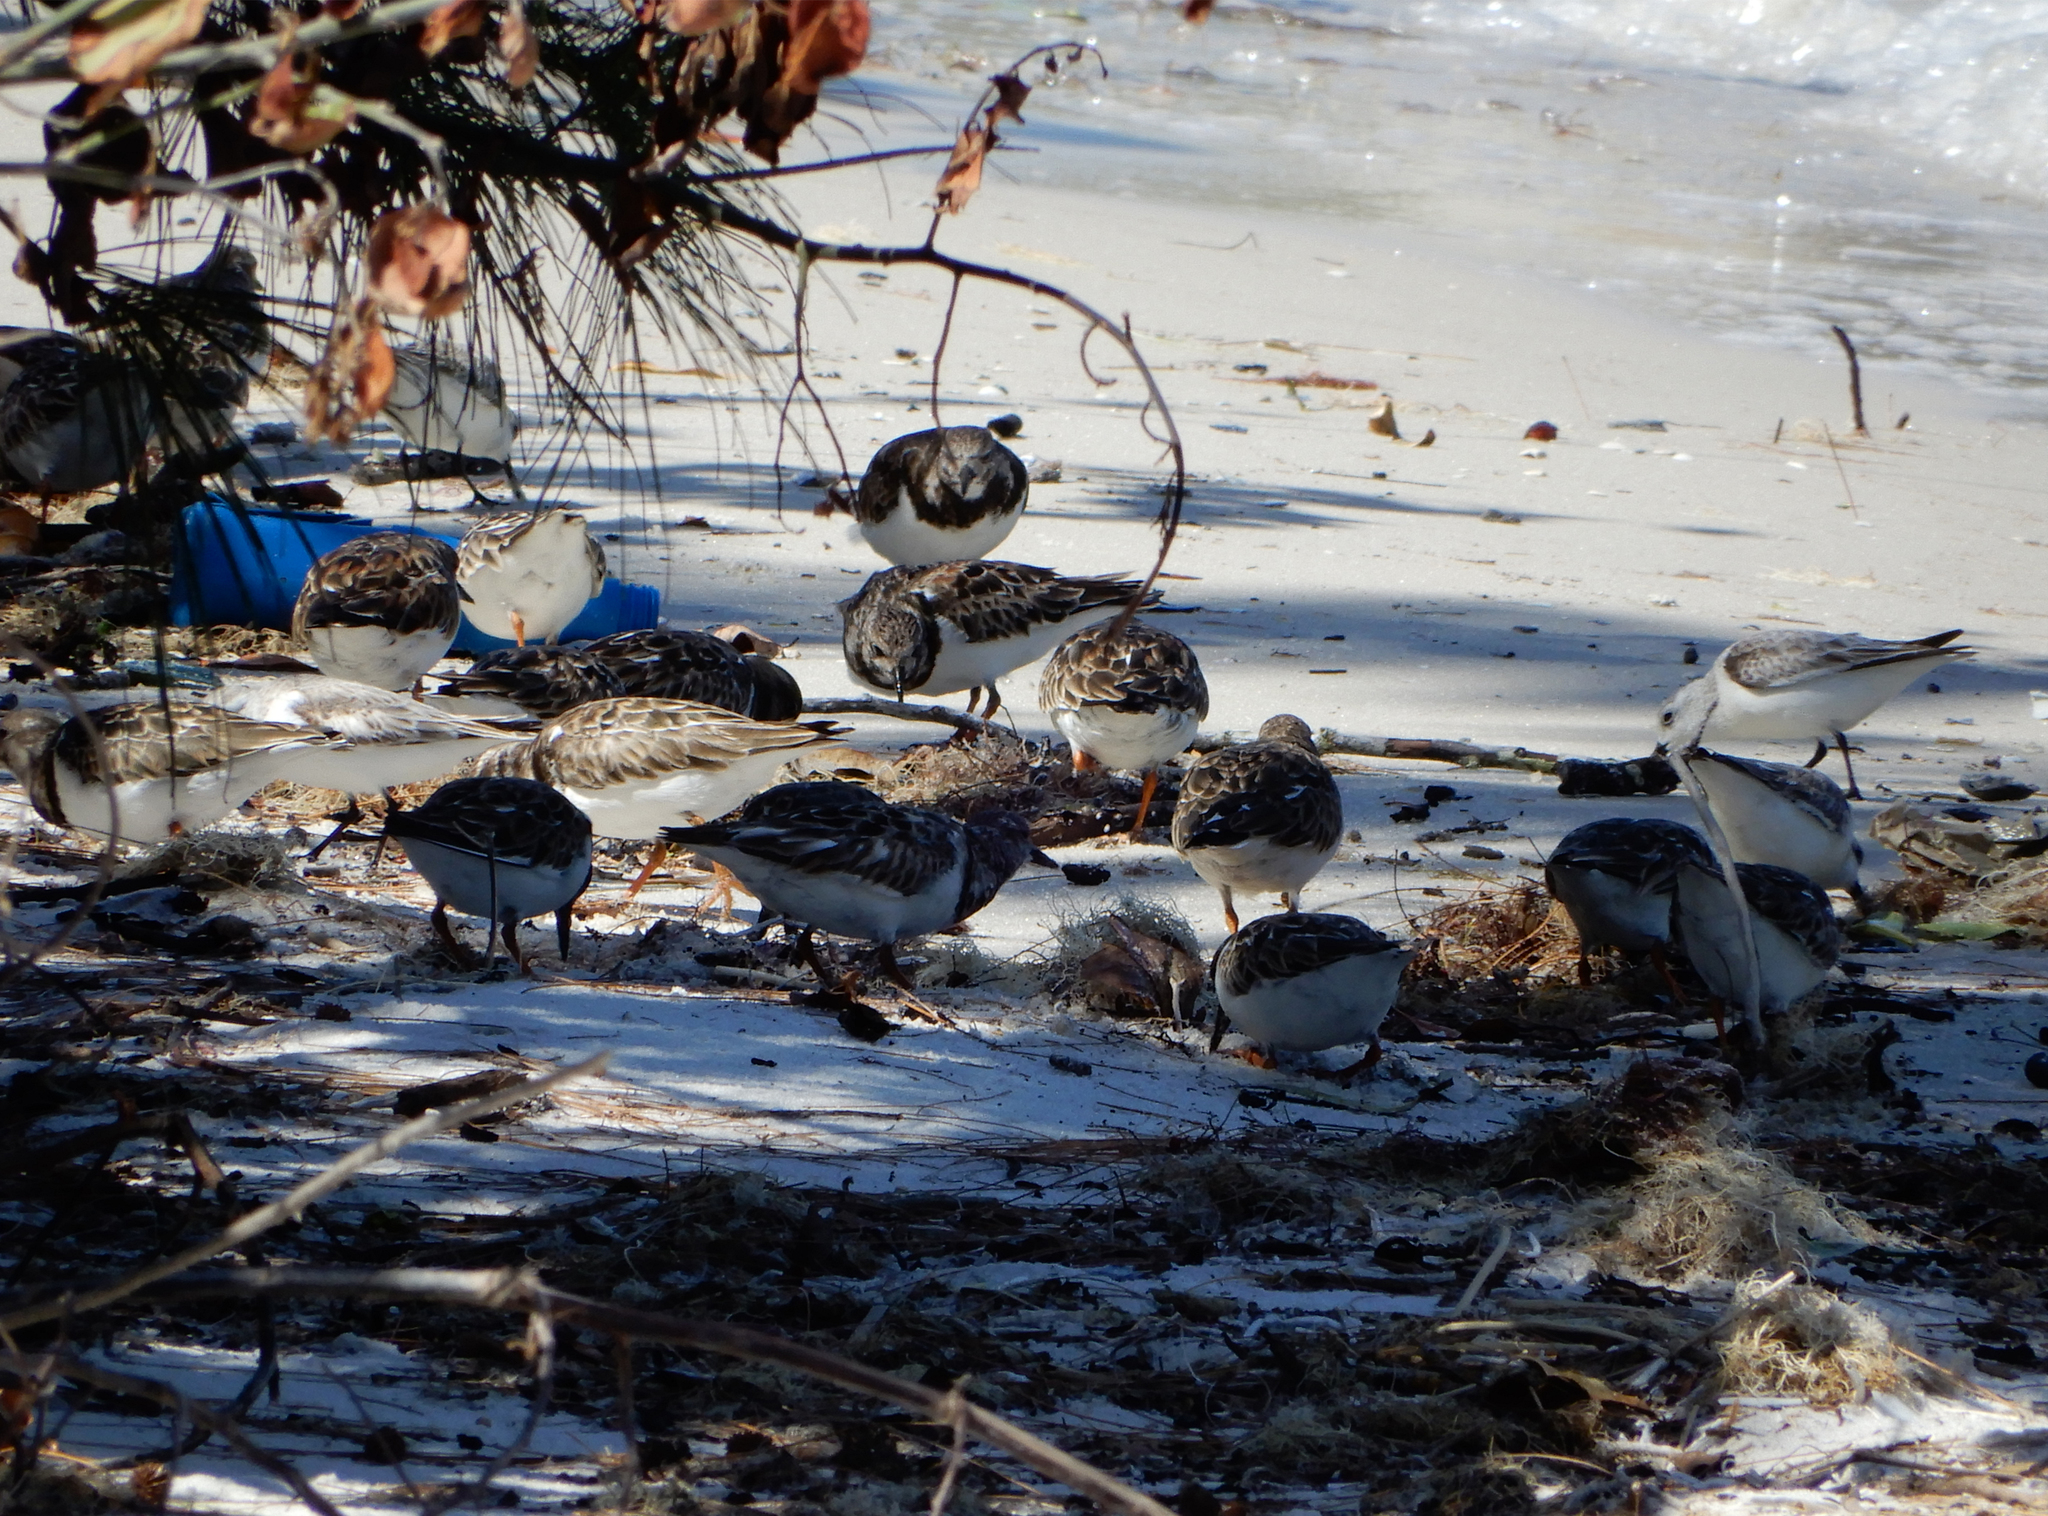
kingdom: Animalia
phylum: Chordata
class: Aves
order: Charadriiformes
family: Scolopacidae
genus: Arenaria
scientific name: Arenaria interpres
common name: Ruddy turnstone
